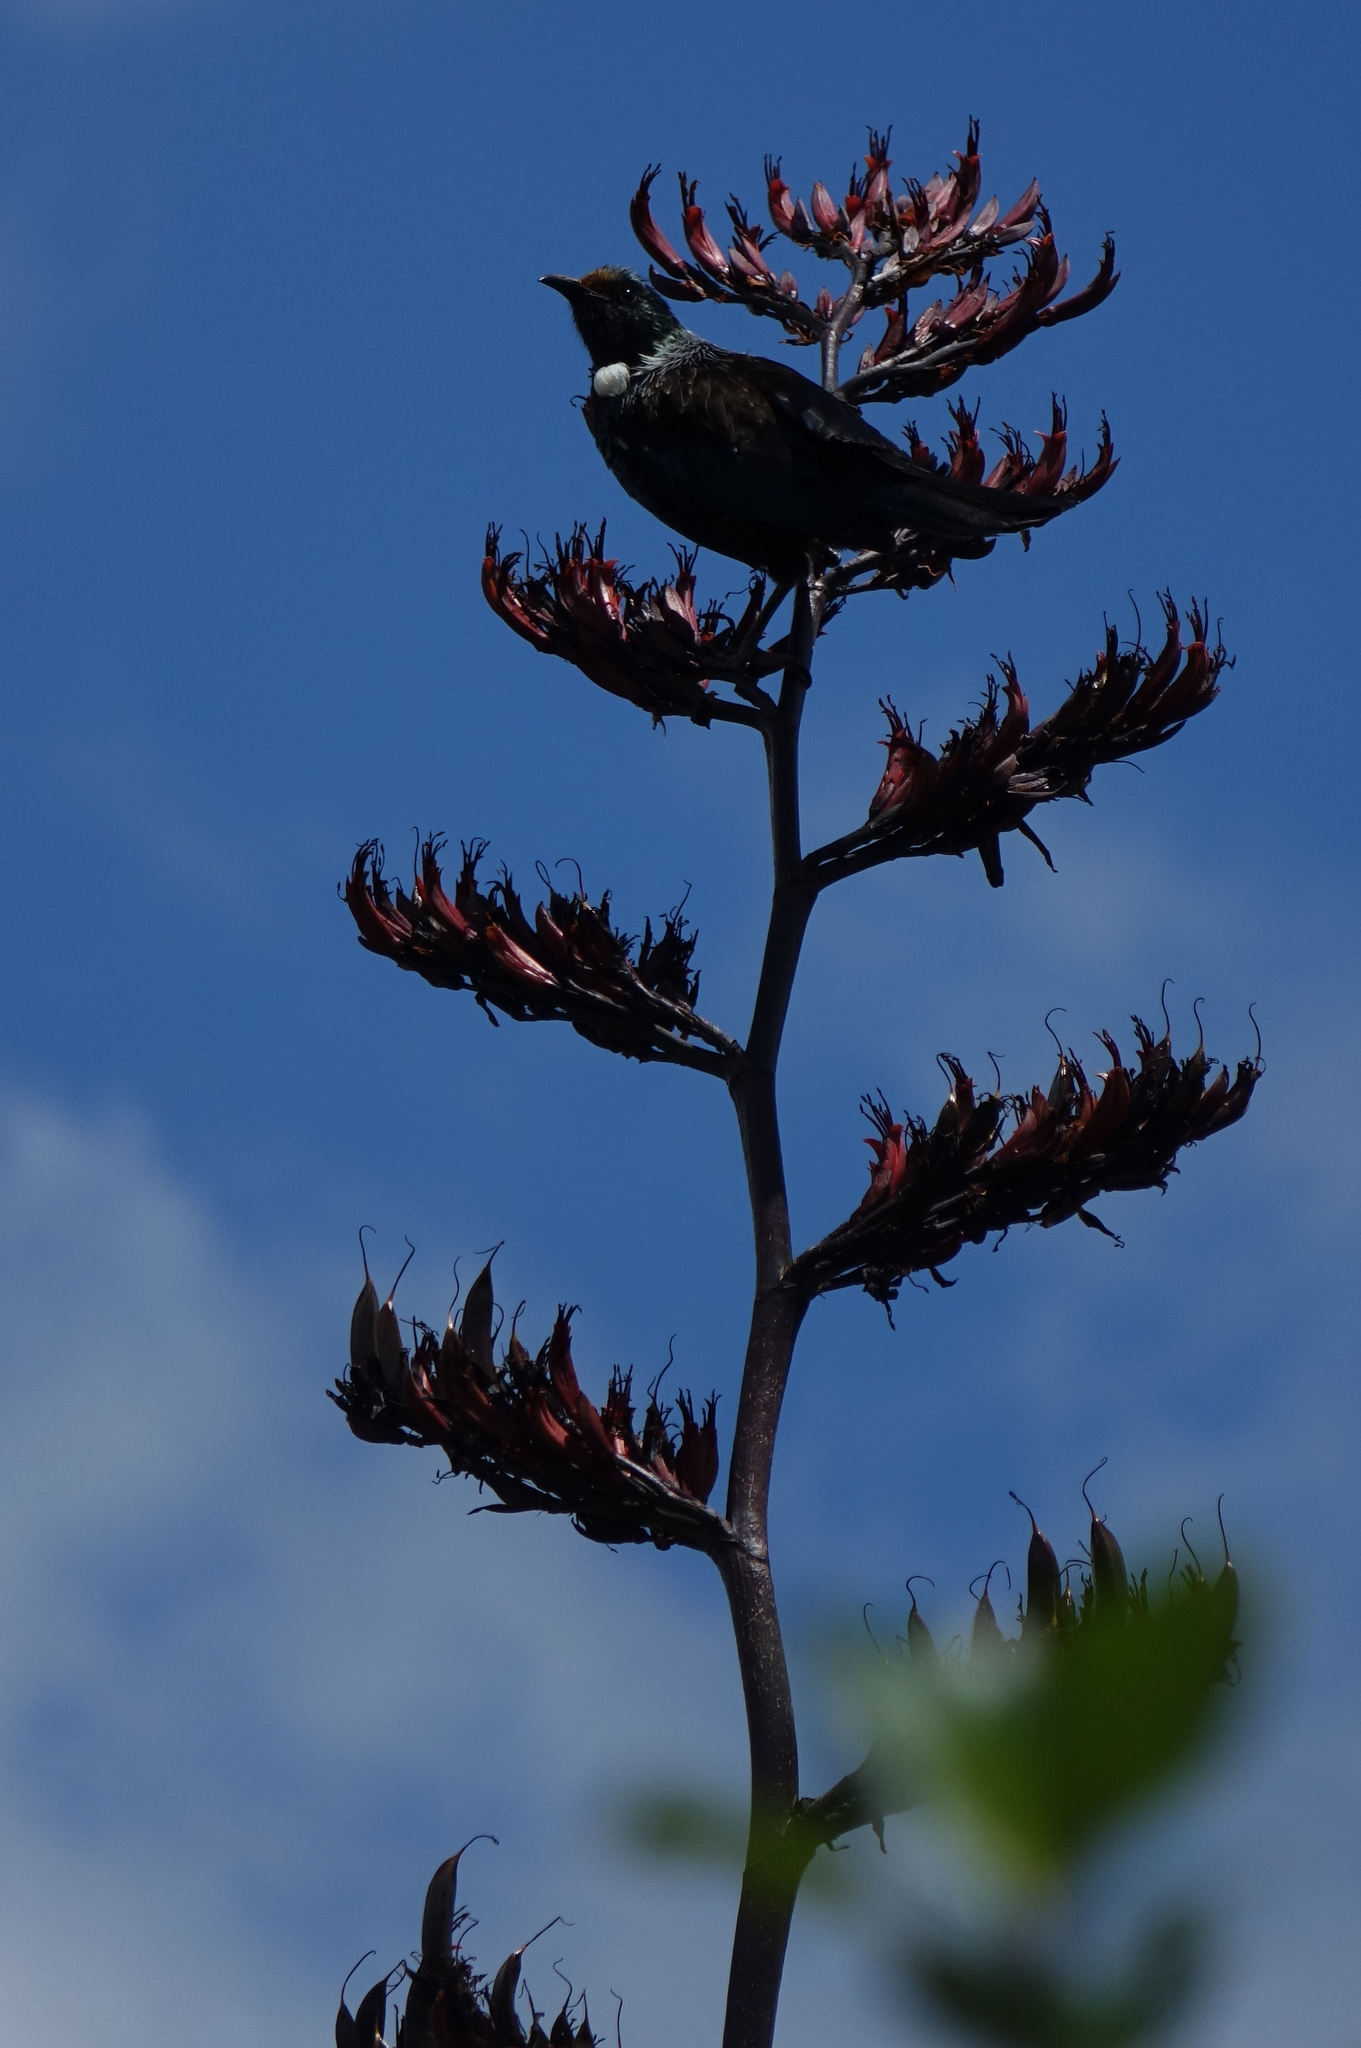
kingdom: Animalia
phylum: Chordata
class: Aves
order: Passeriformes
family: Meliphagidae
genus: Prosthemadera
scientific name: Prosthemadera novaeseelandiae
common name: Tui
